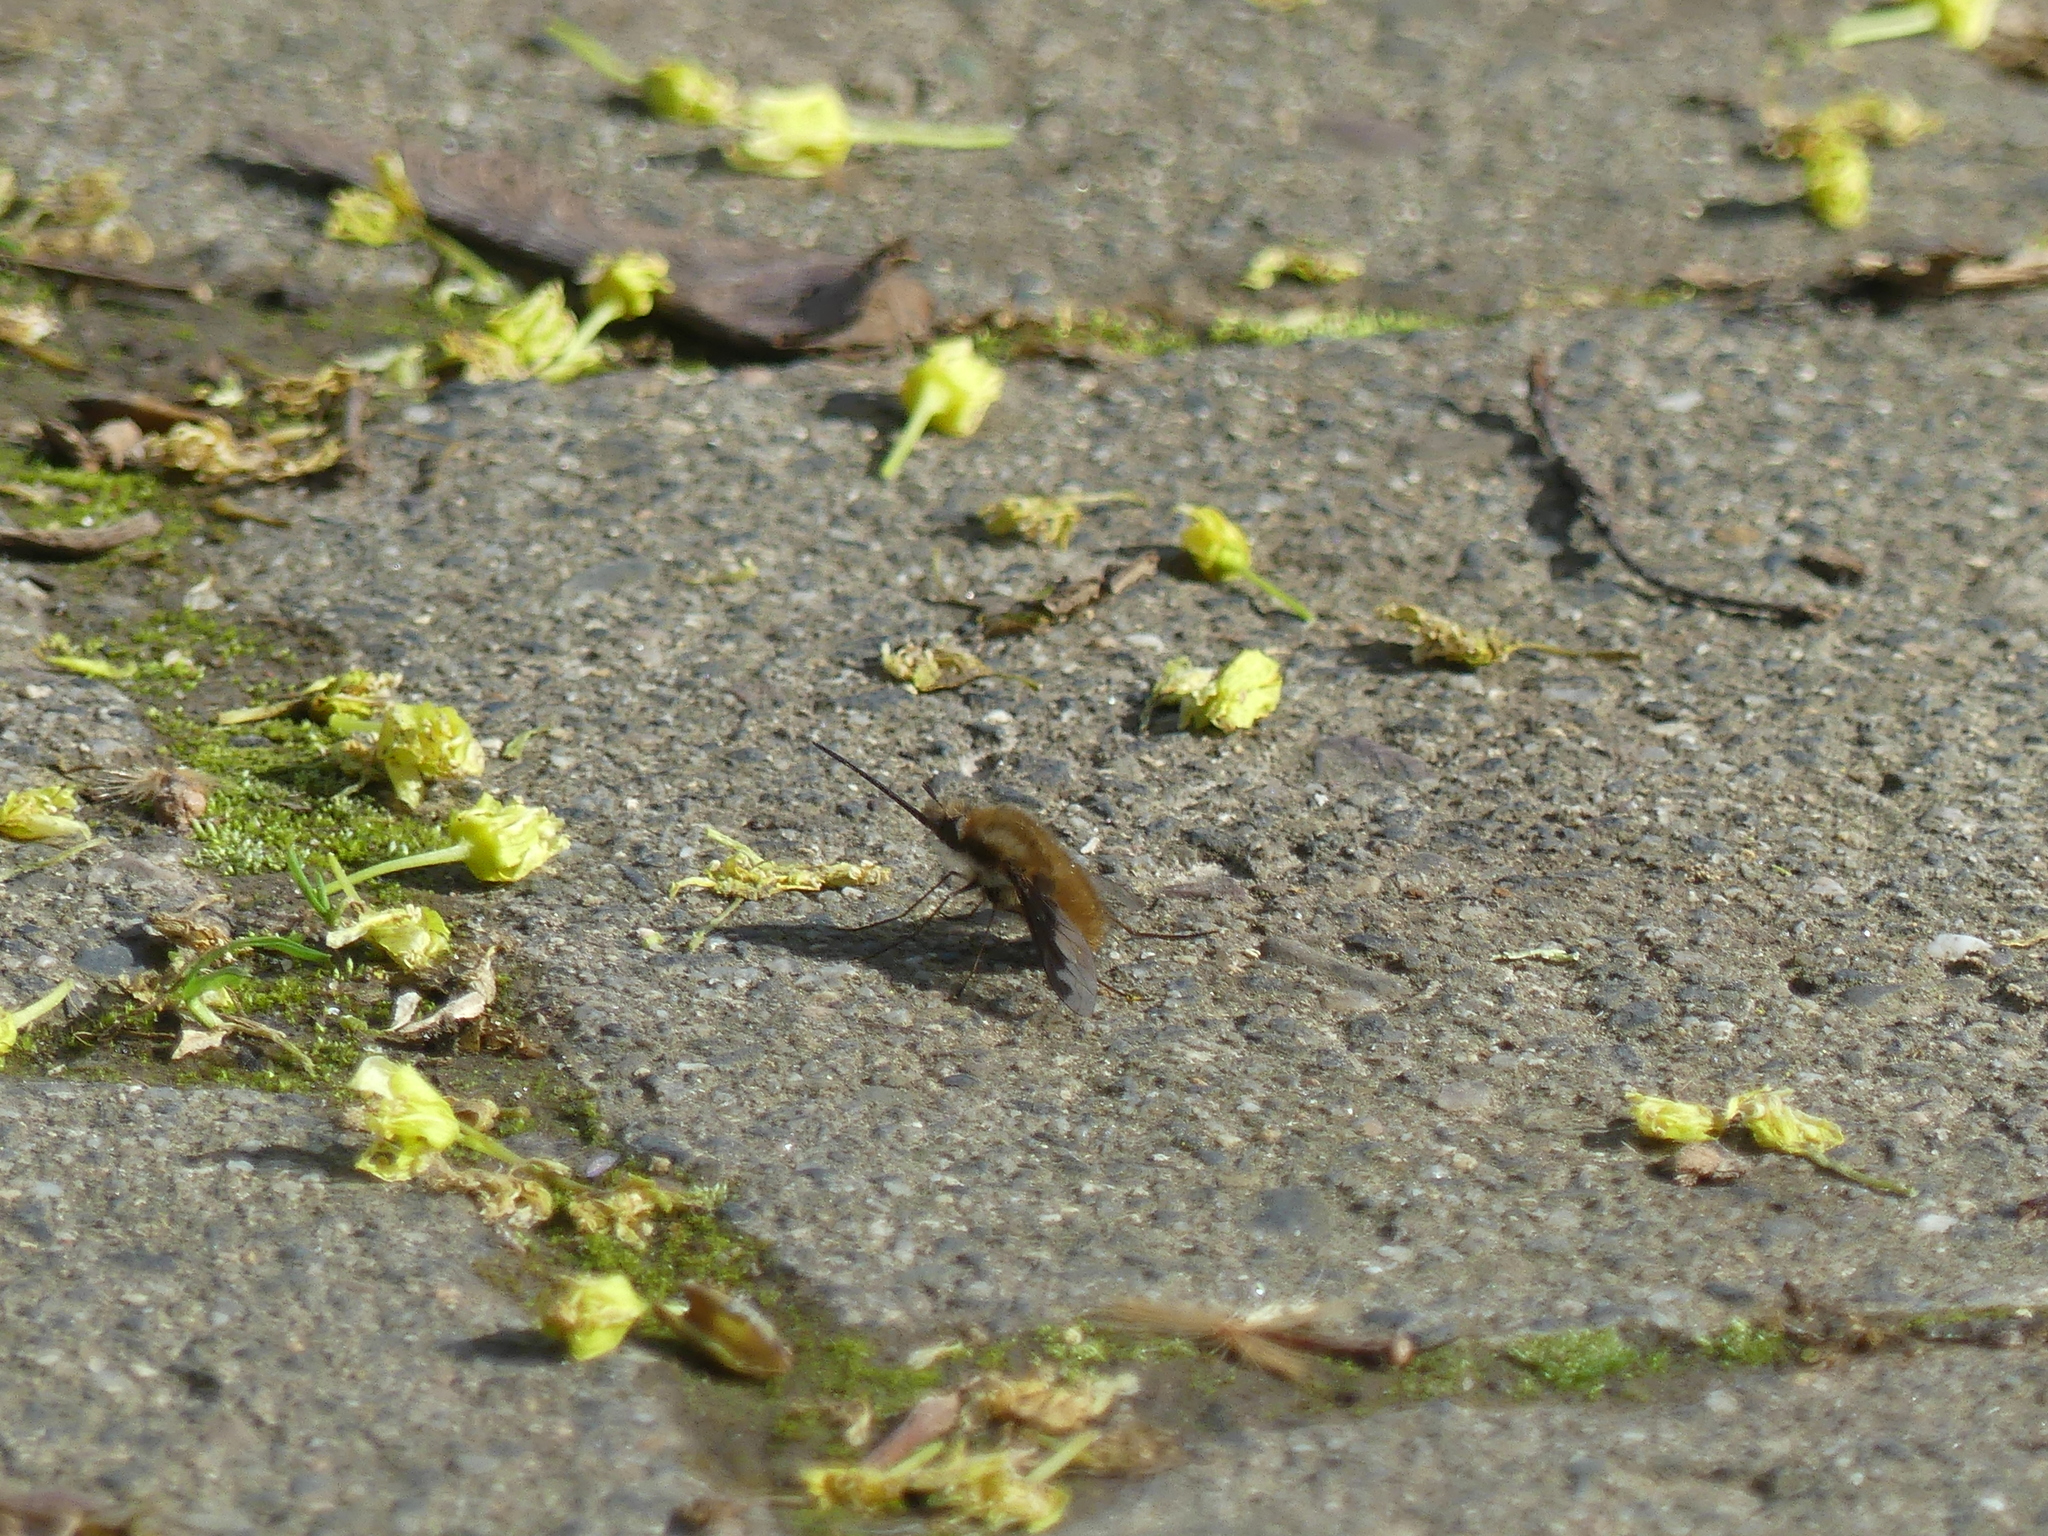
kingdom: Animalia
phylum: Arthropoda
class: Insecta
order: Diptera
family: Bombyliidae
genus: Bombylius
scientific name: Bombylius major
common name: Bee fly
